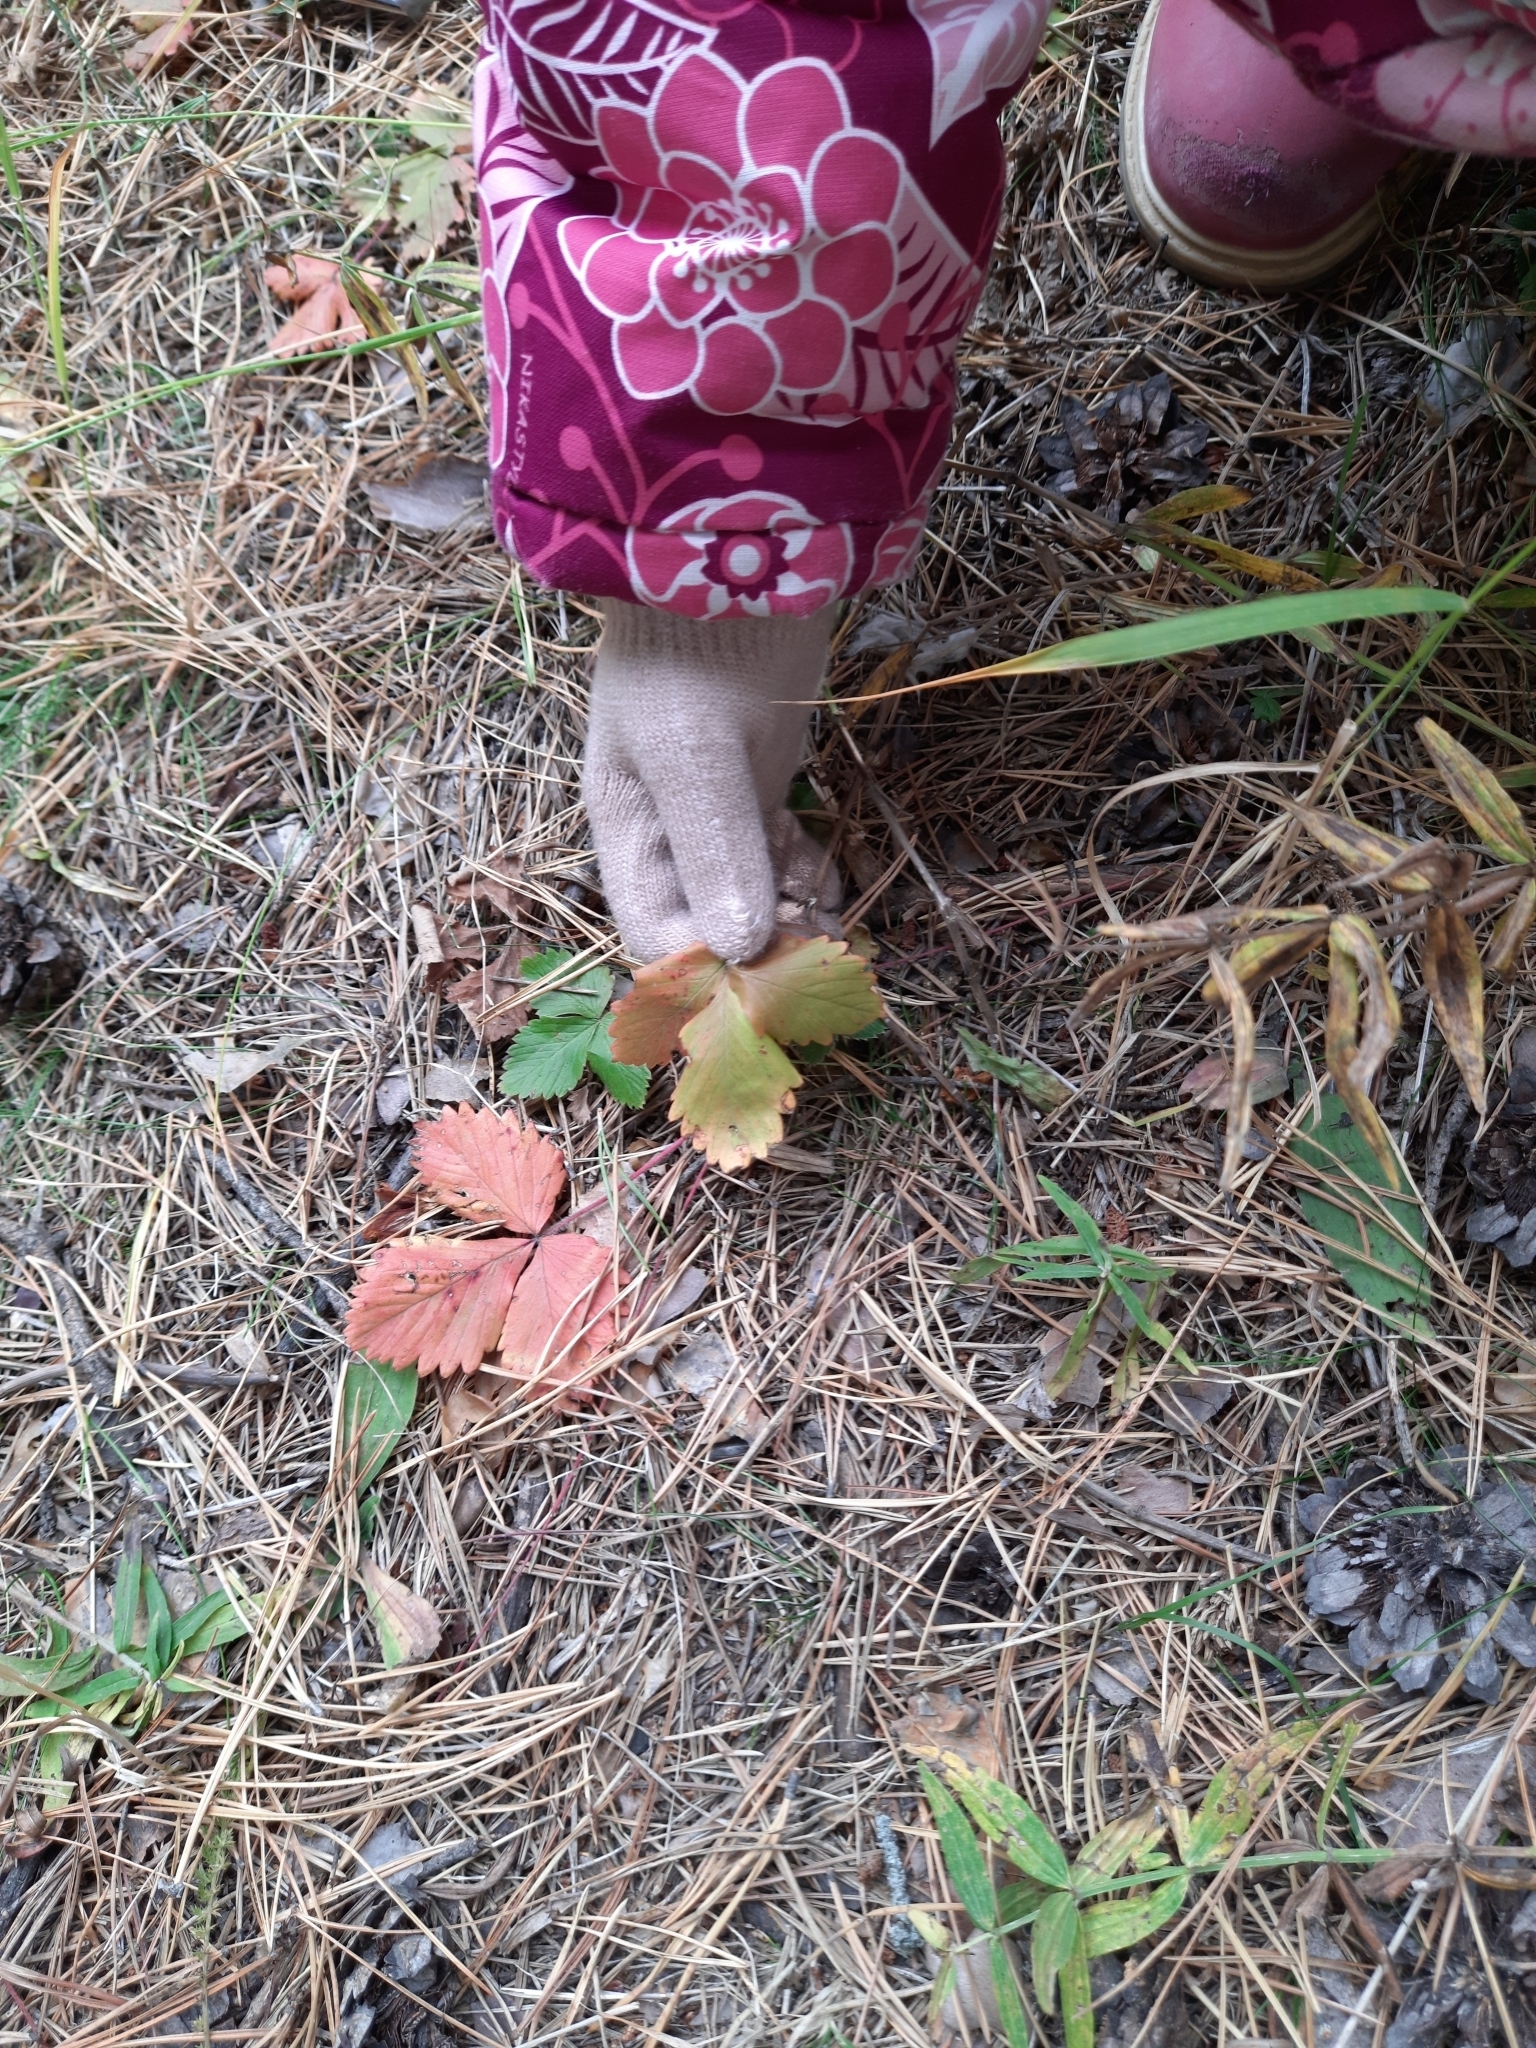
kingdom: Plantae
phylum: Tracheophyta
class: Magnoliopsida
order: Rosales
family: Rosaceae
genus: Fragaria
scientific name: Fragaria vesca
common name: Wild strawberry
